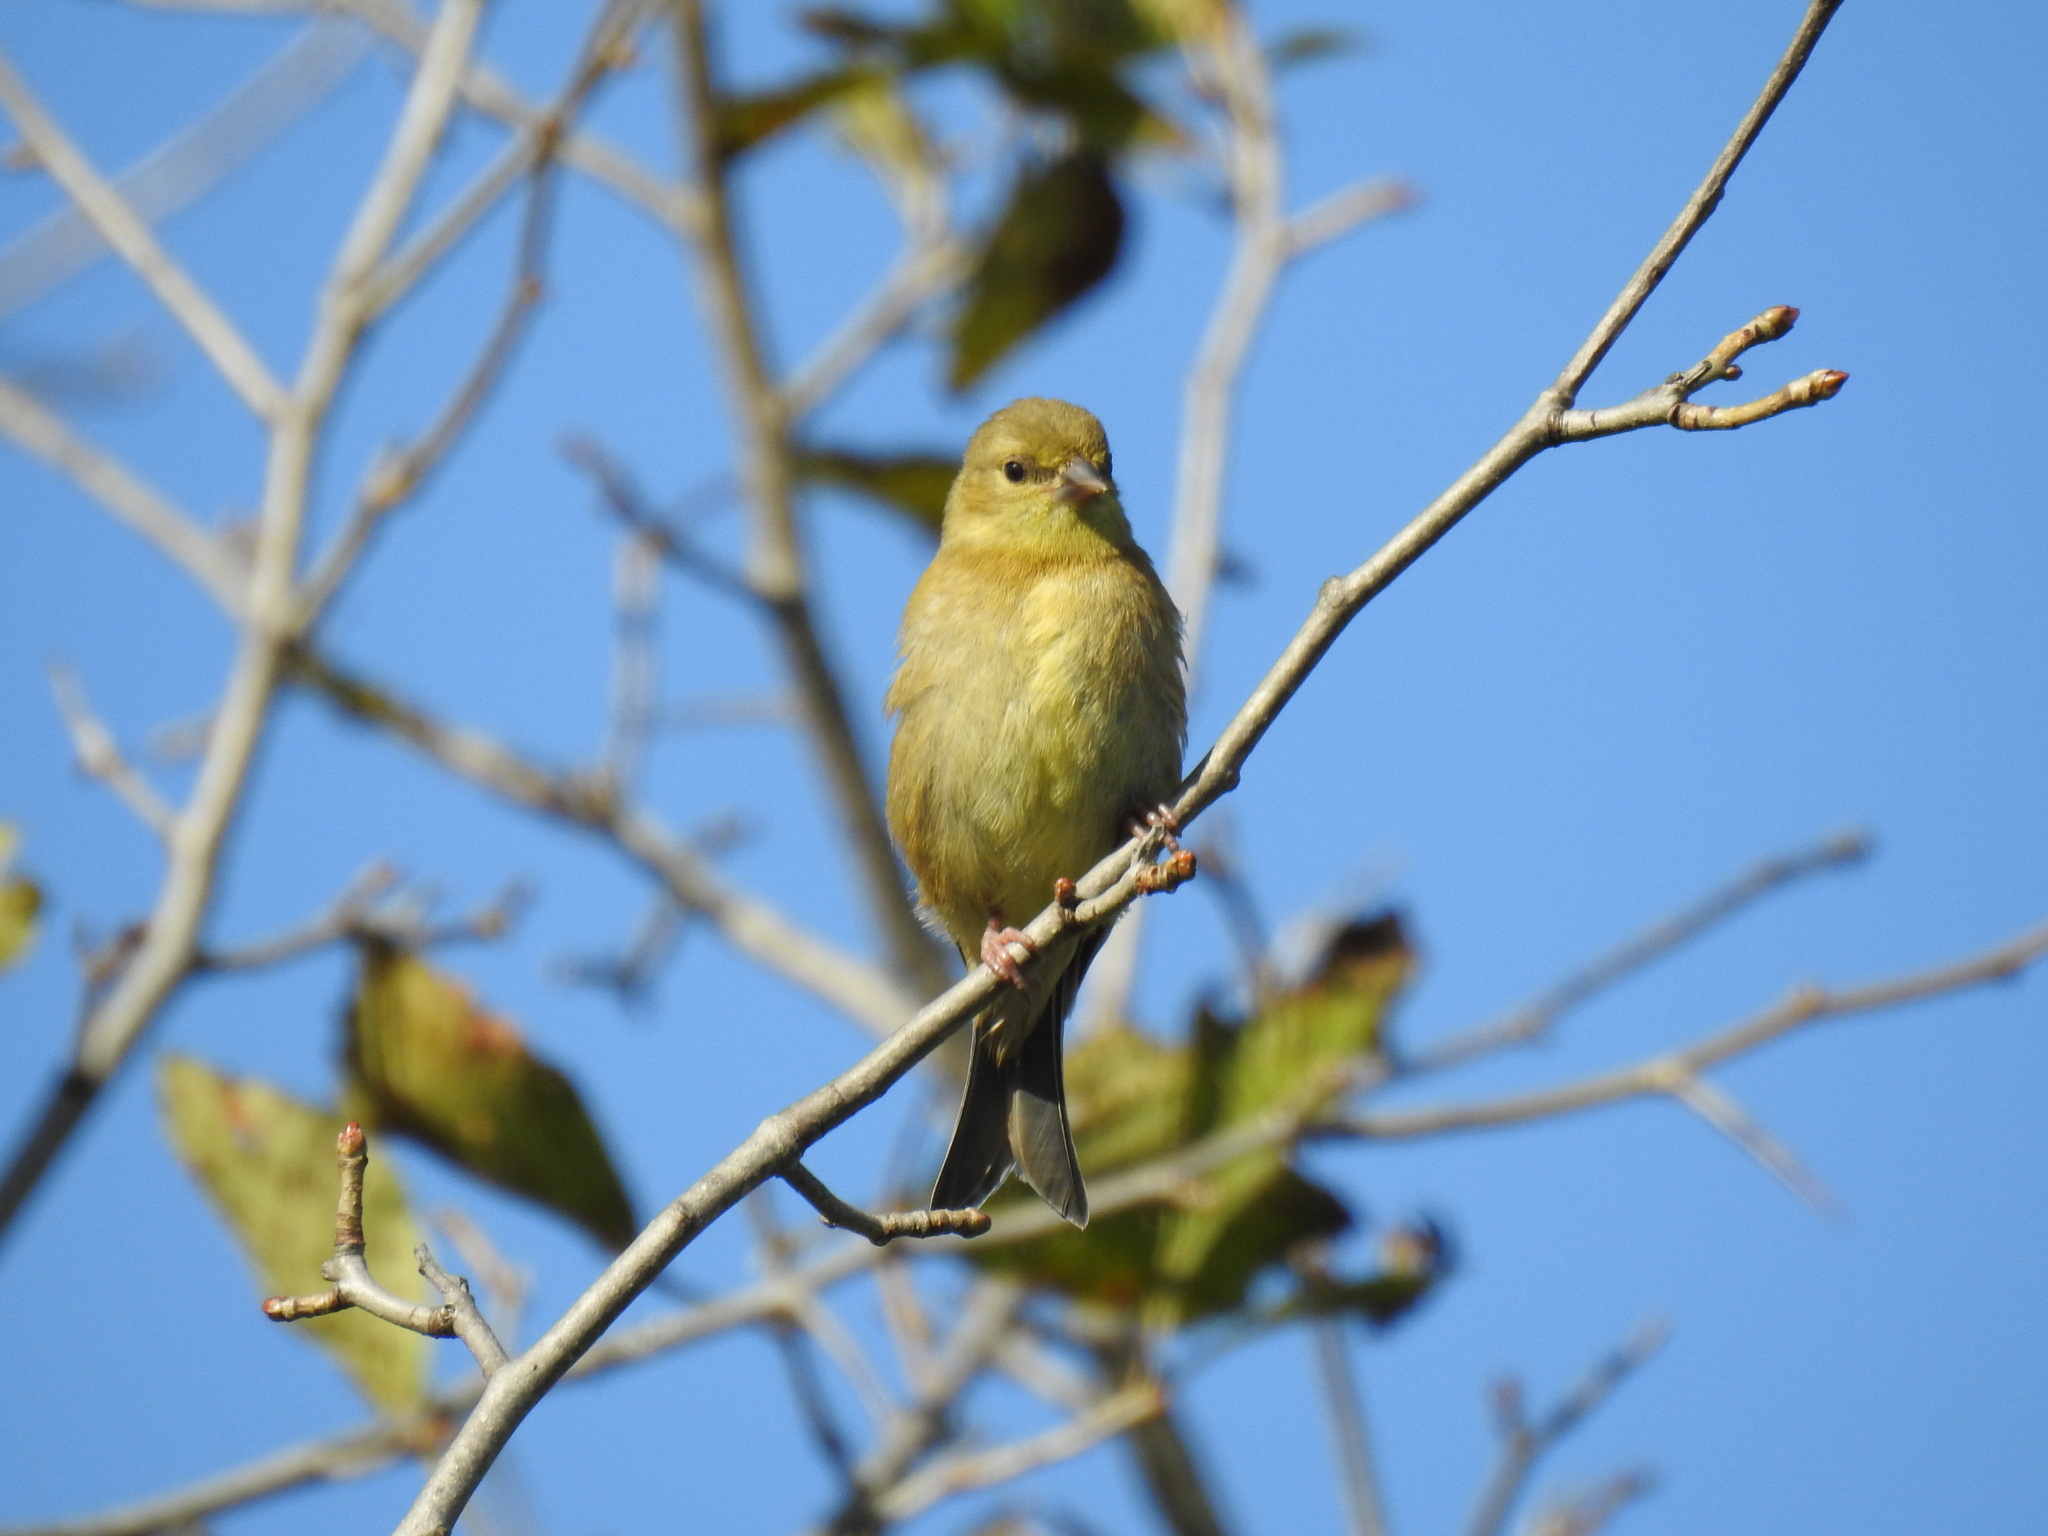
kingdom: Animalia
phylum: Chordata
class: Aves
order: Passeriformes
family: Fringillidae
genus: Spinus
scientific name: Spinus tristis
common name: American goldfinch
